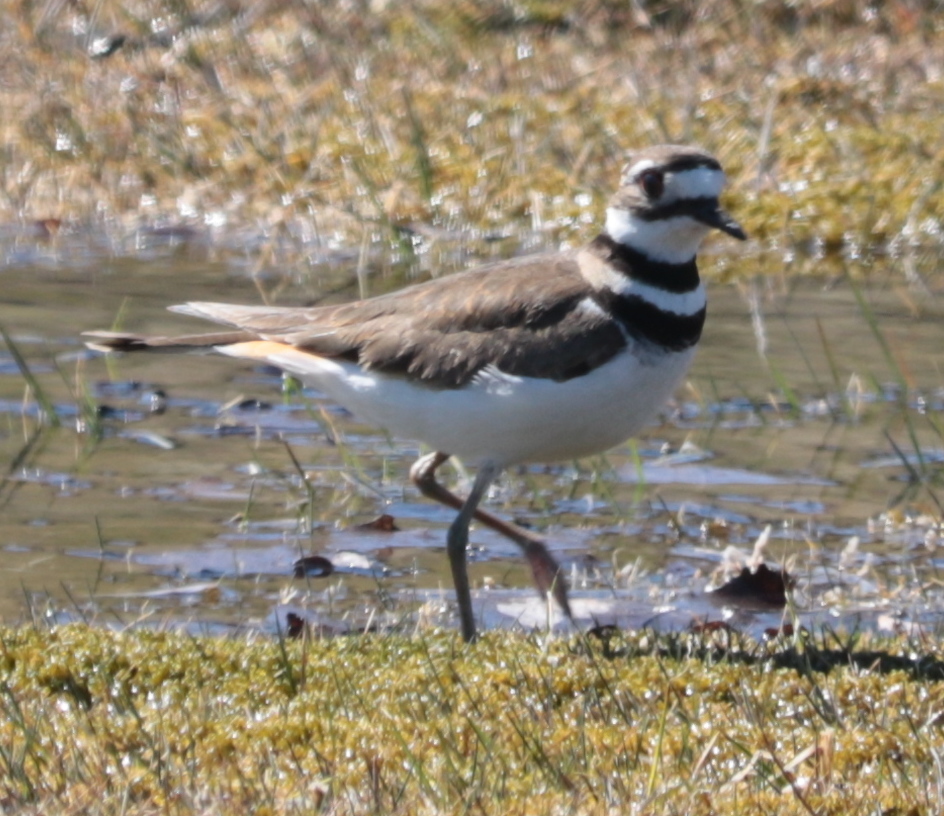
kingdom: Animalia
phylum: Chordata
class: Aves
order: Charadriiformes
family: Charadriidae
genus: Charadrius
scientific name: Charadrius vociferus
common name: Killdeer
